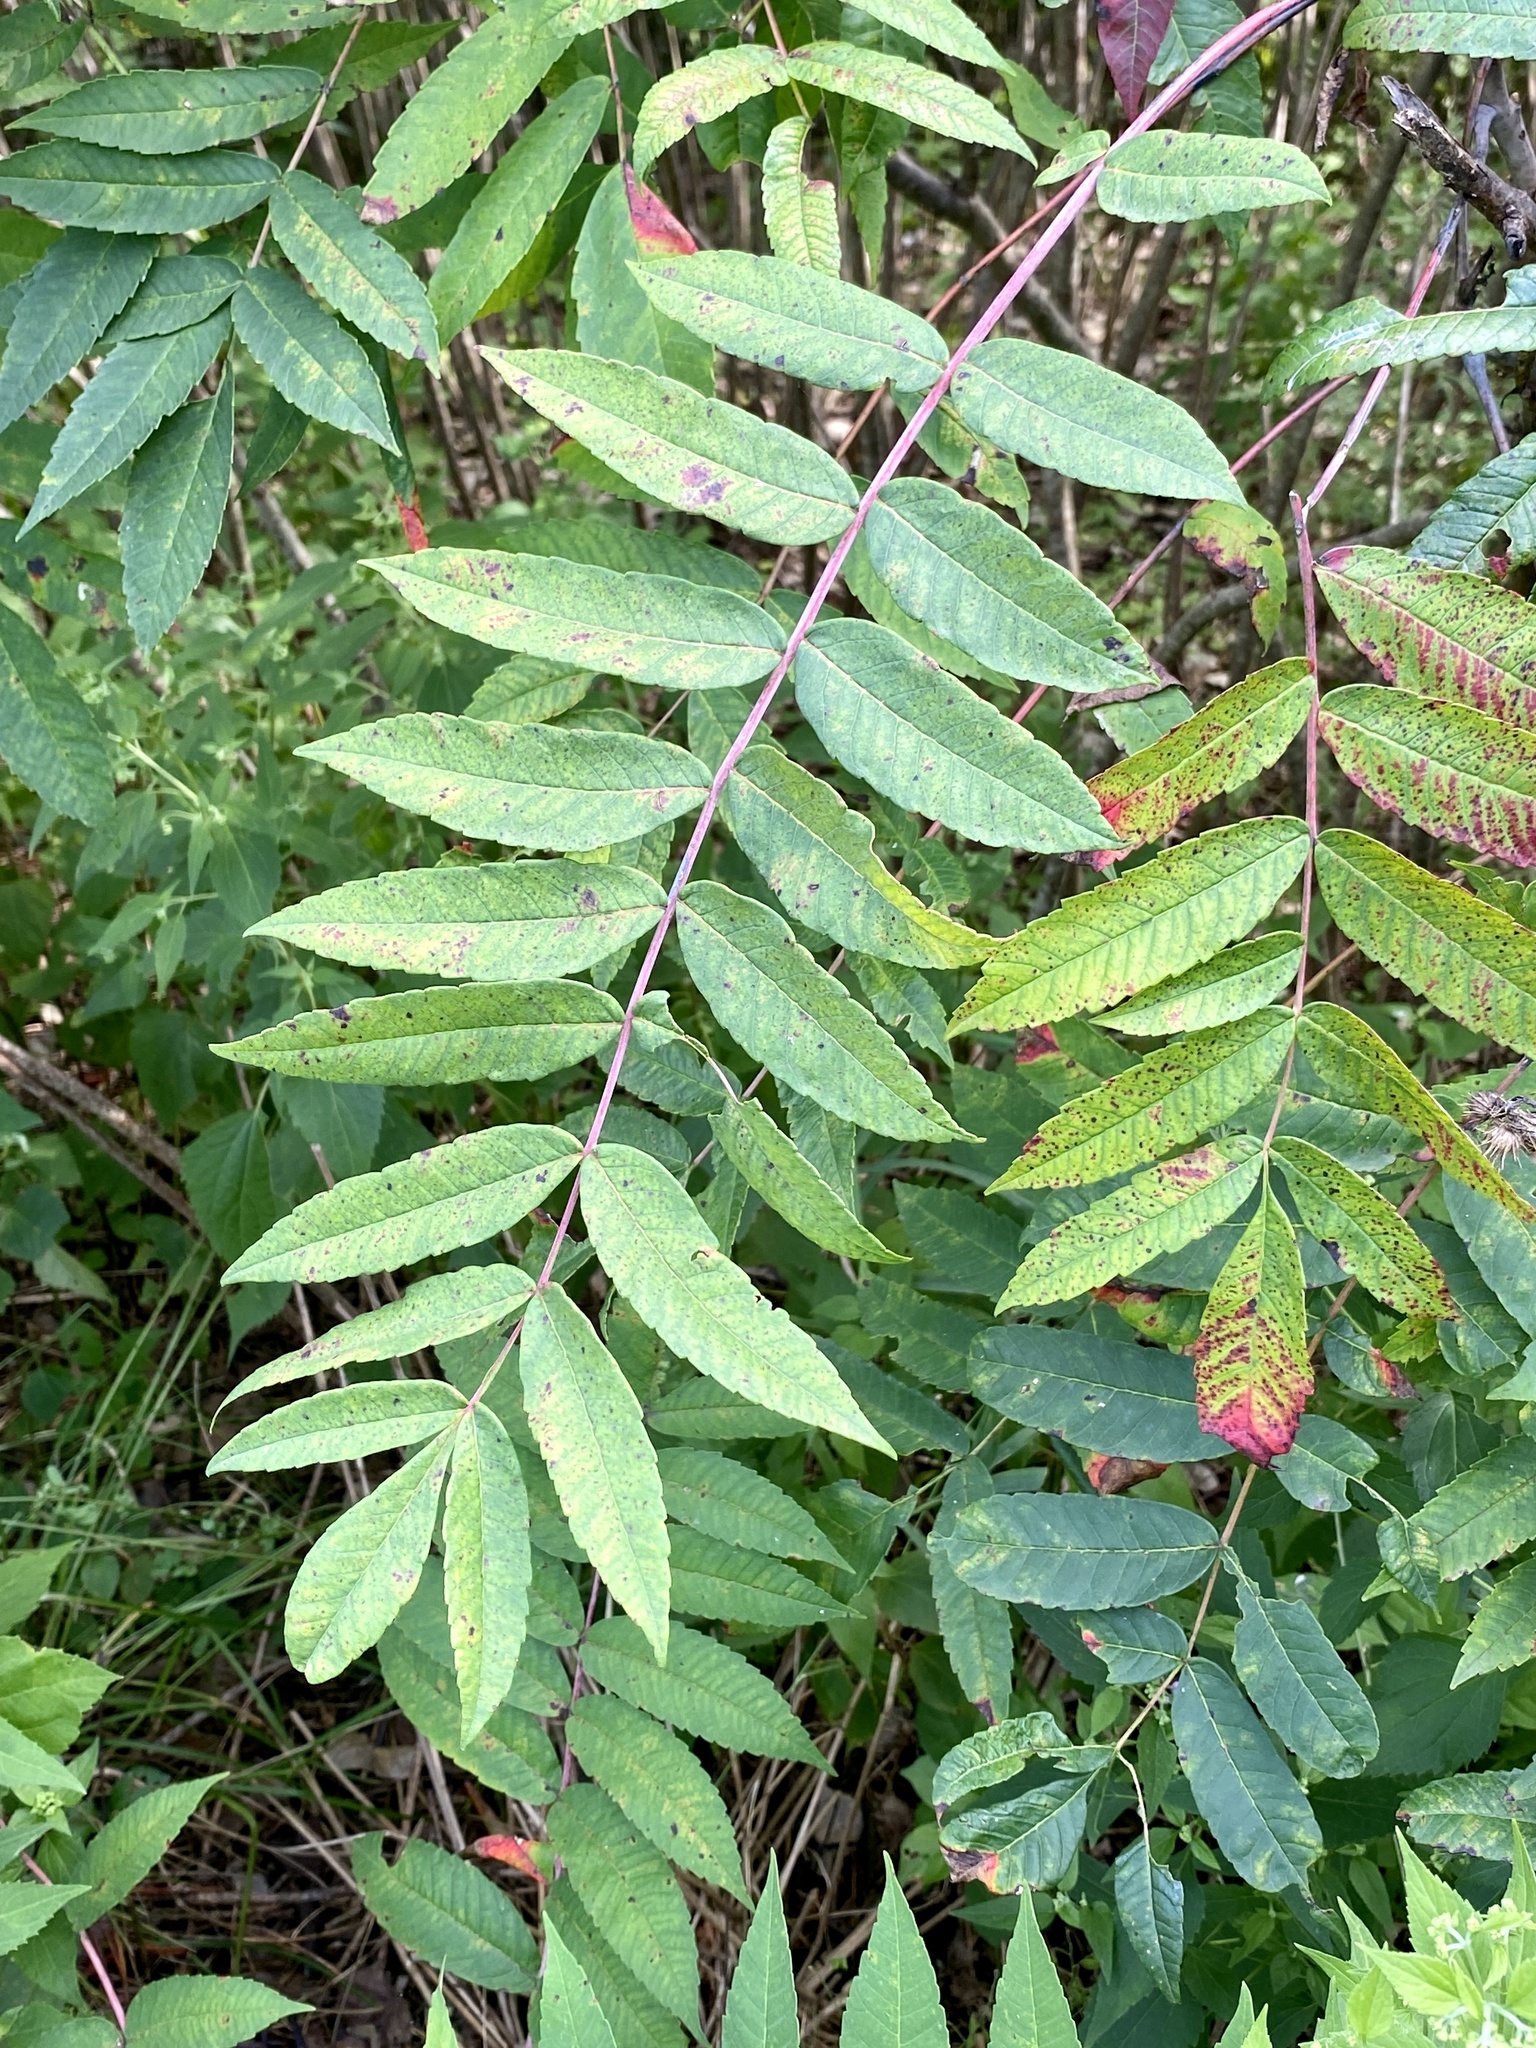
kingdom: Plantae
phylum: Tracheophyta
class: Magnoliopsida
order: Sapindales
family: Anacardiaceae
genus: Rhus
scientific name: Rhus glabra
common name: Scarlet sumac
